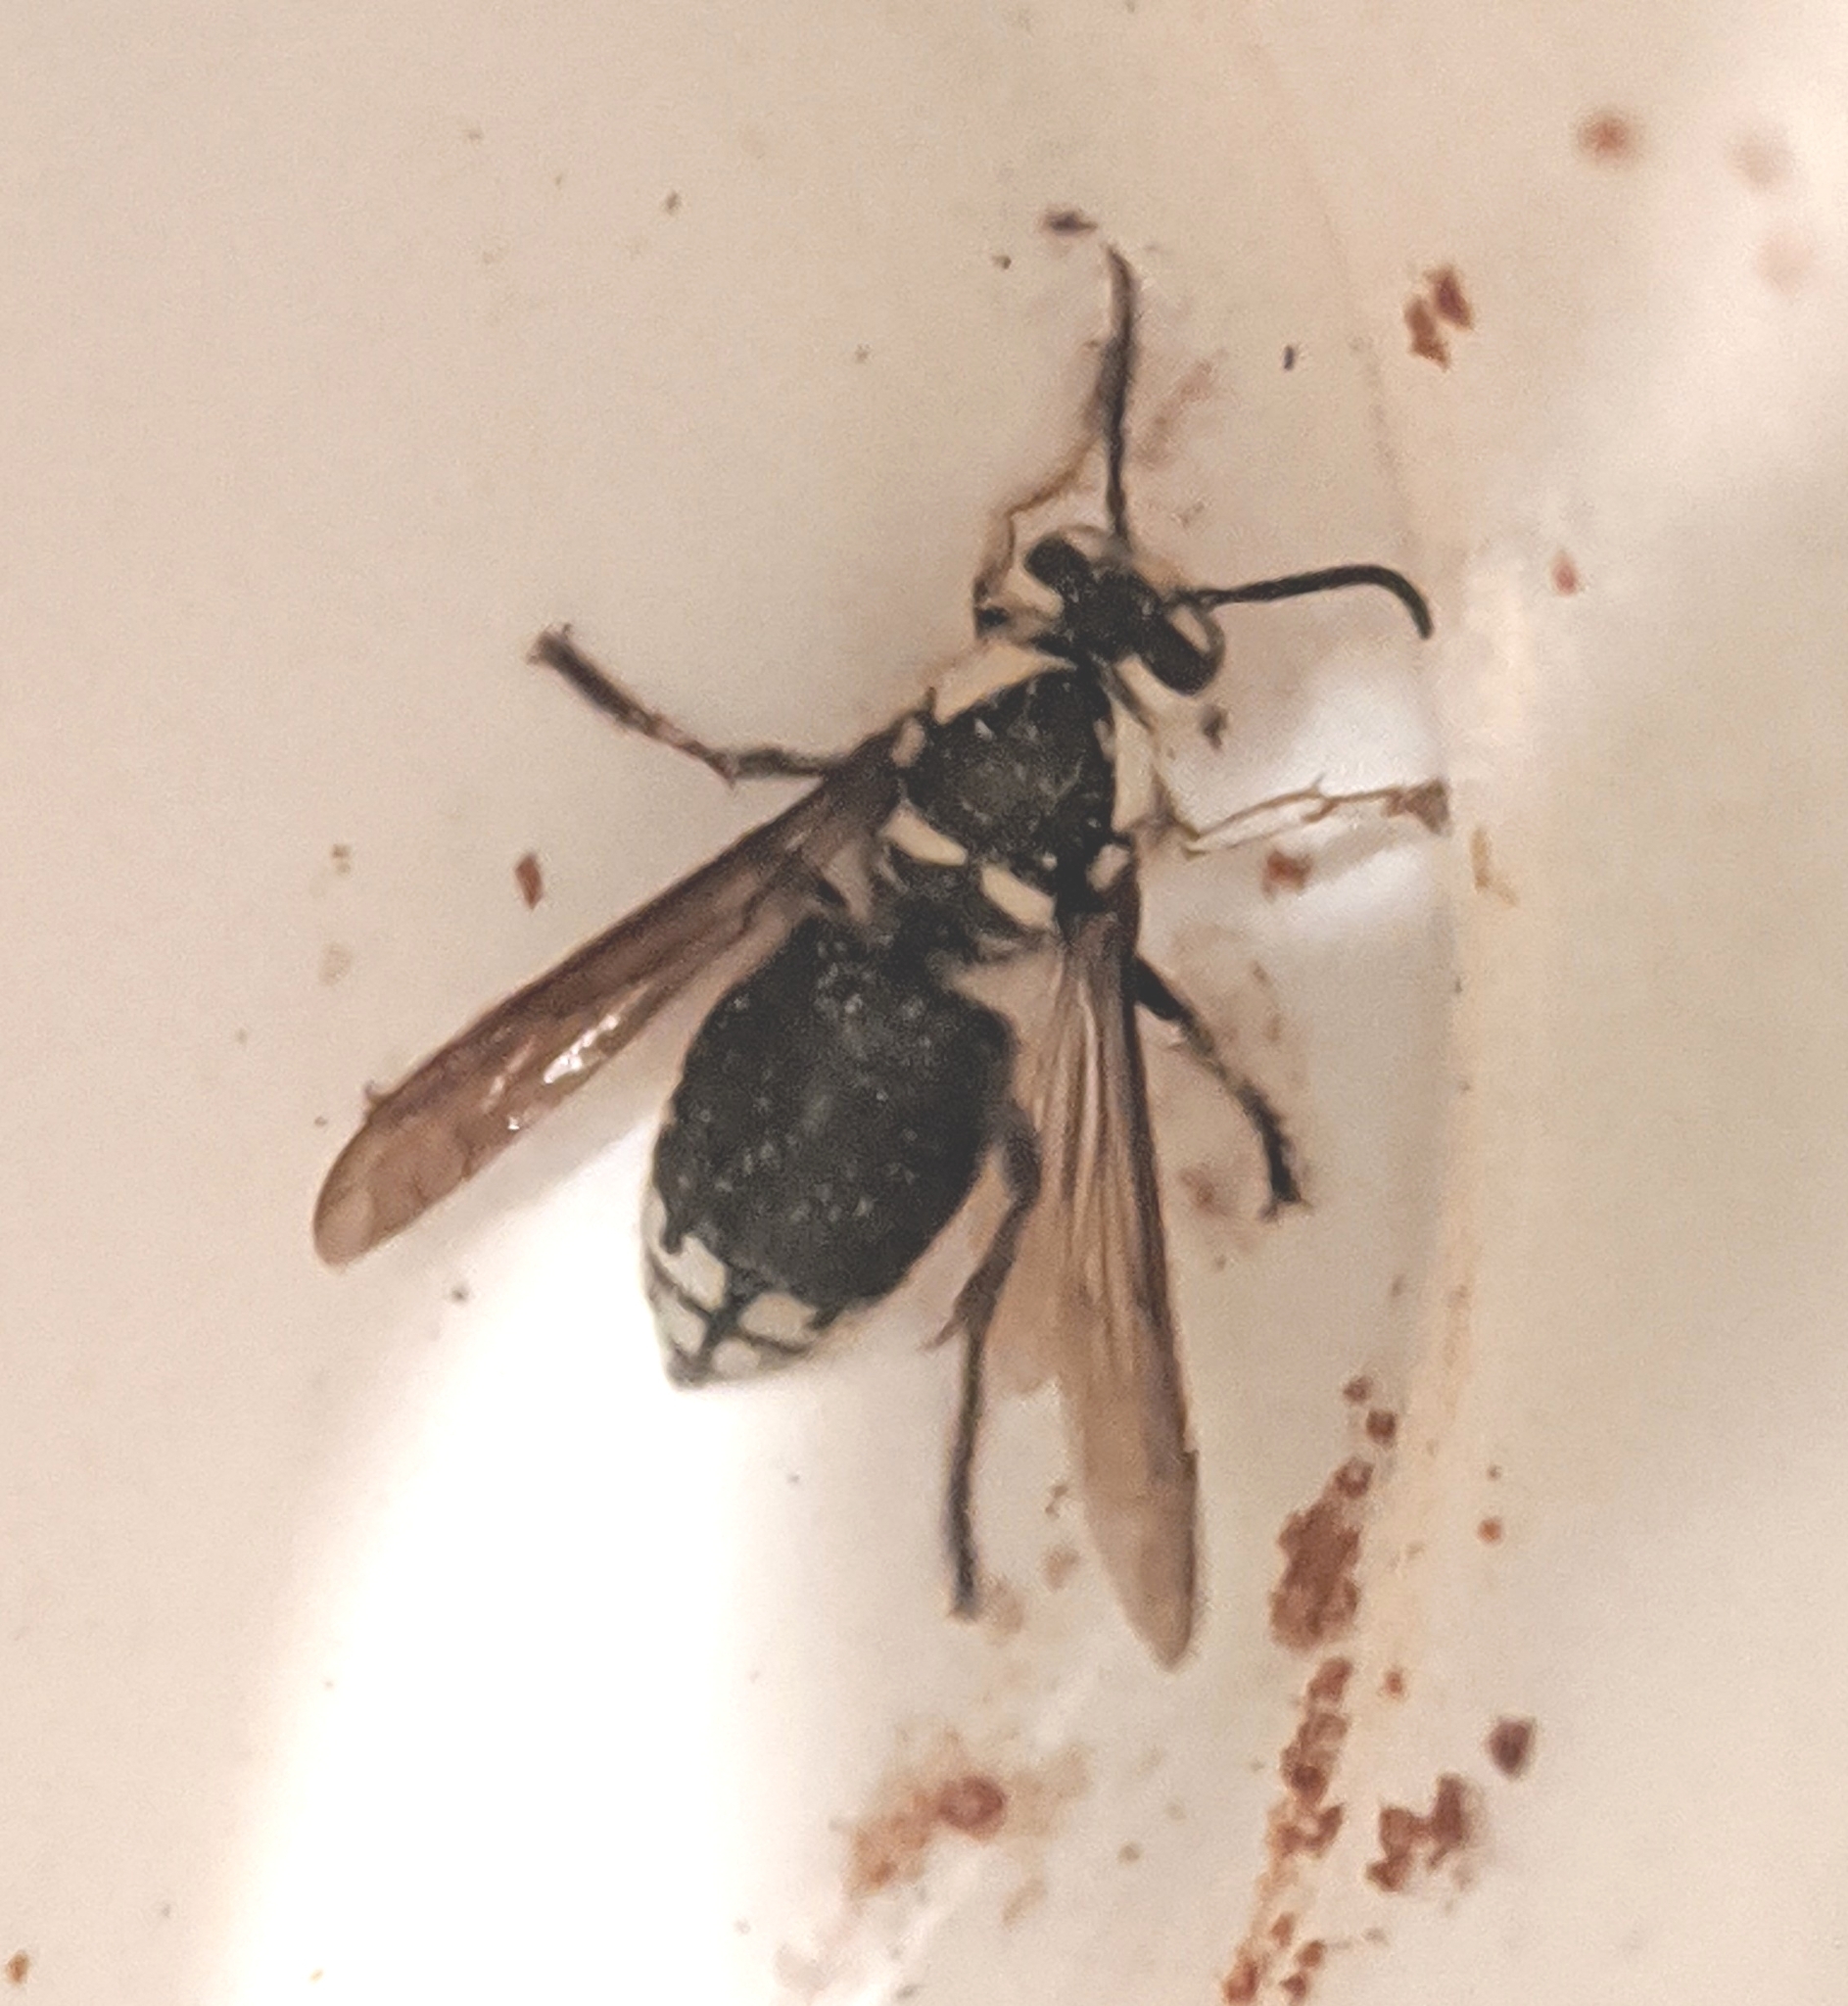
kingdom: Animalia
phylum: Arthropoda
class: Insecta
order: Hymenoptera
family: Vespidae
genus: Dolichovespula
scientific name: Dolichovespula maculata
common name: Bald-faced hornet
